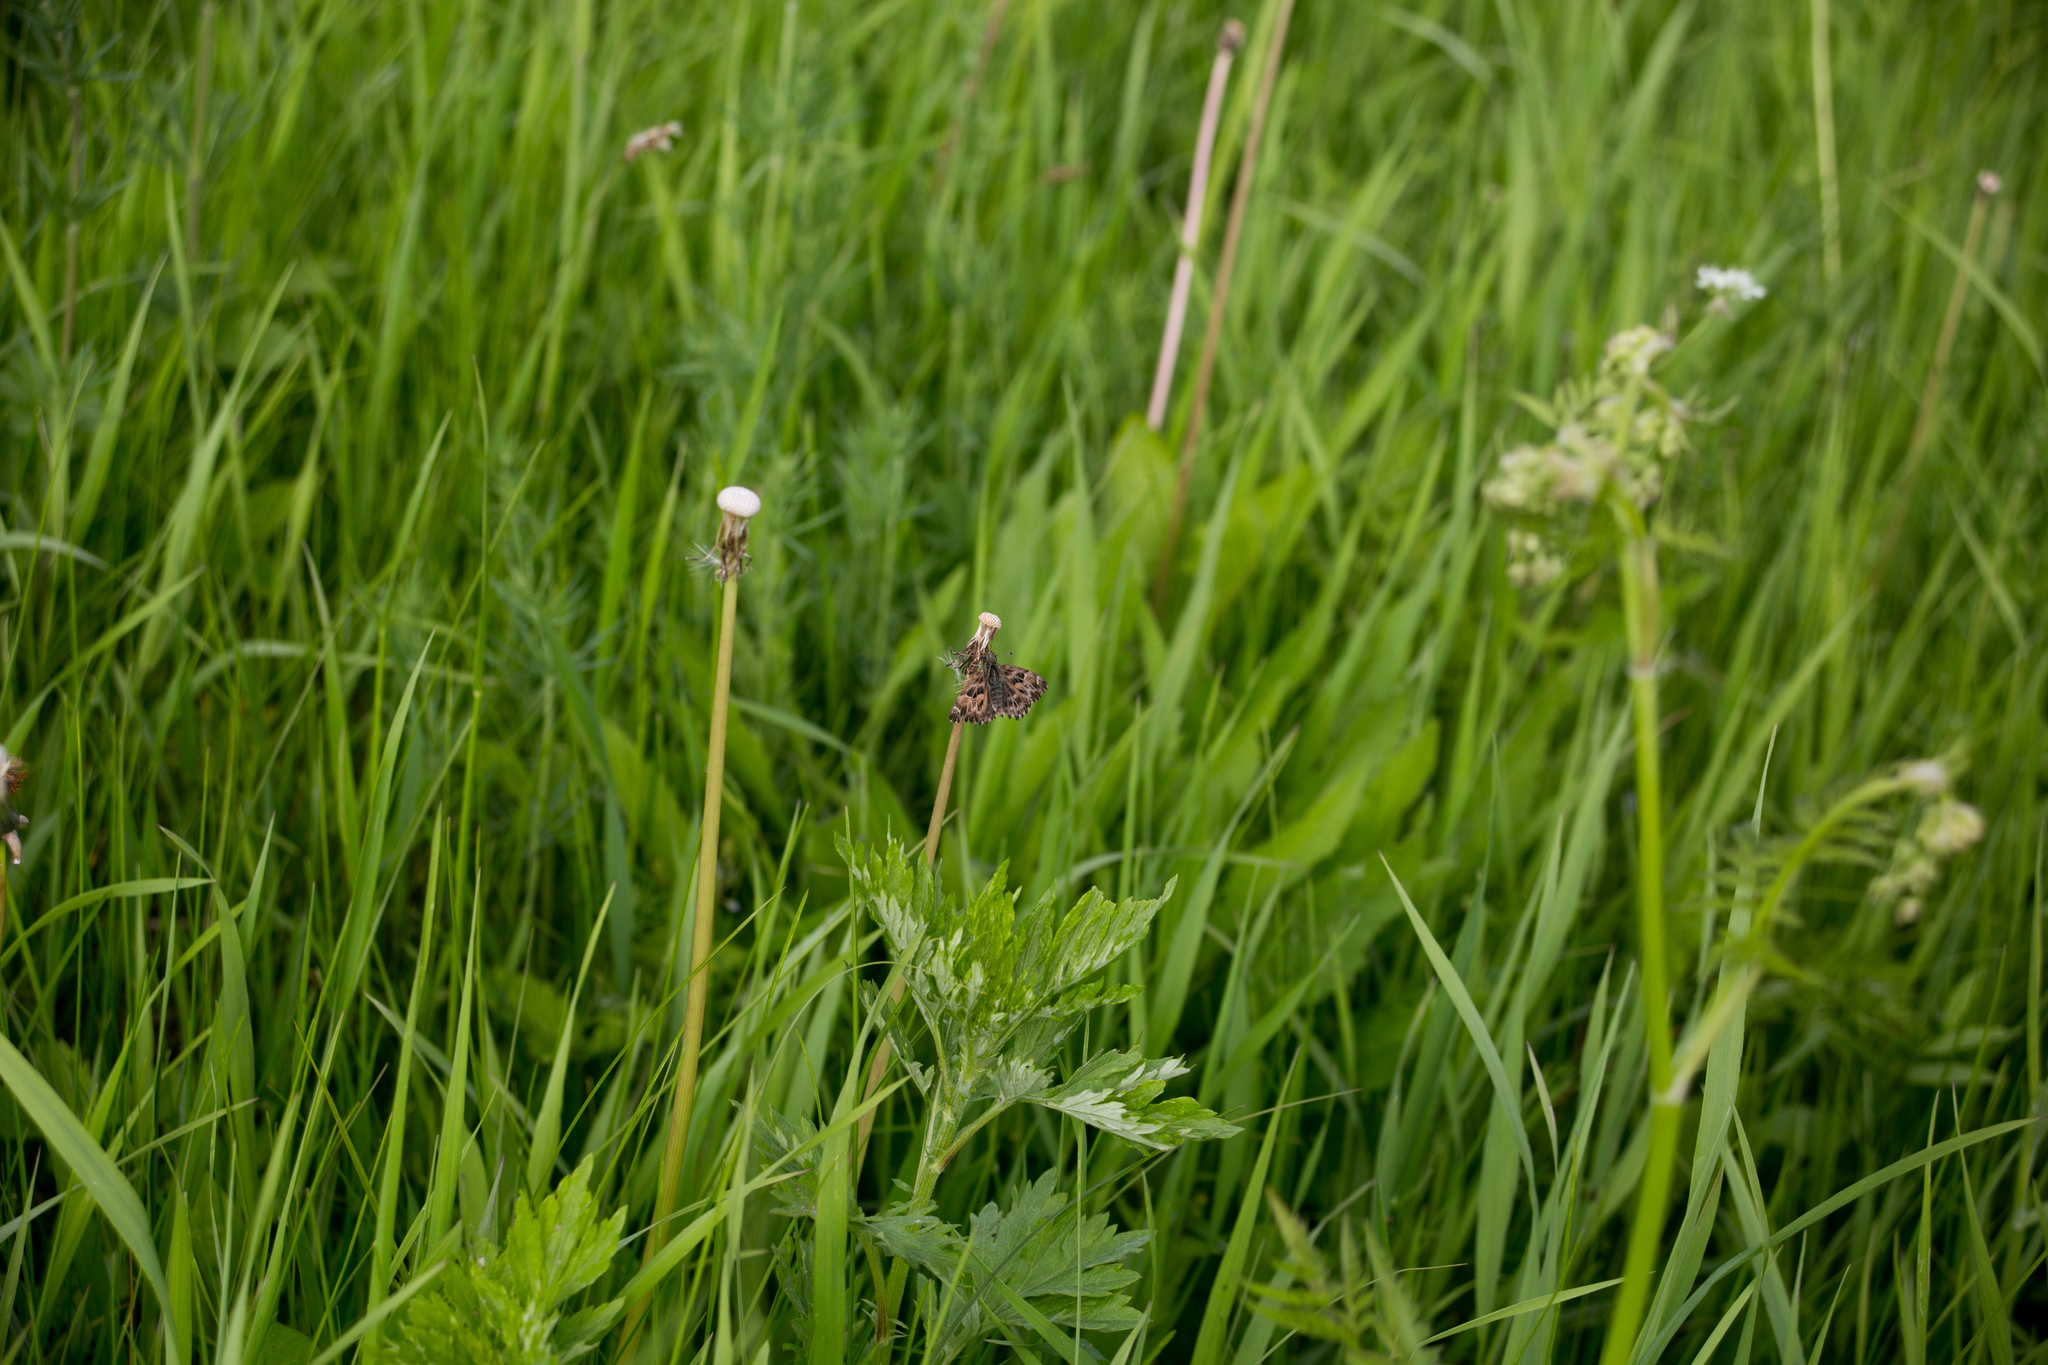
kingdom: Animalia
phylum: Arthropoda
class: Insecta
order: Lepidoptera
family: Hesperiidae
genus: Carcharodus
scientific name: Carcharodus alceae
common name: Mallow skipper
